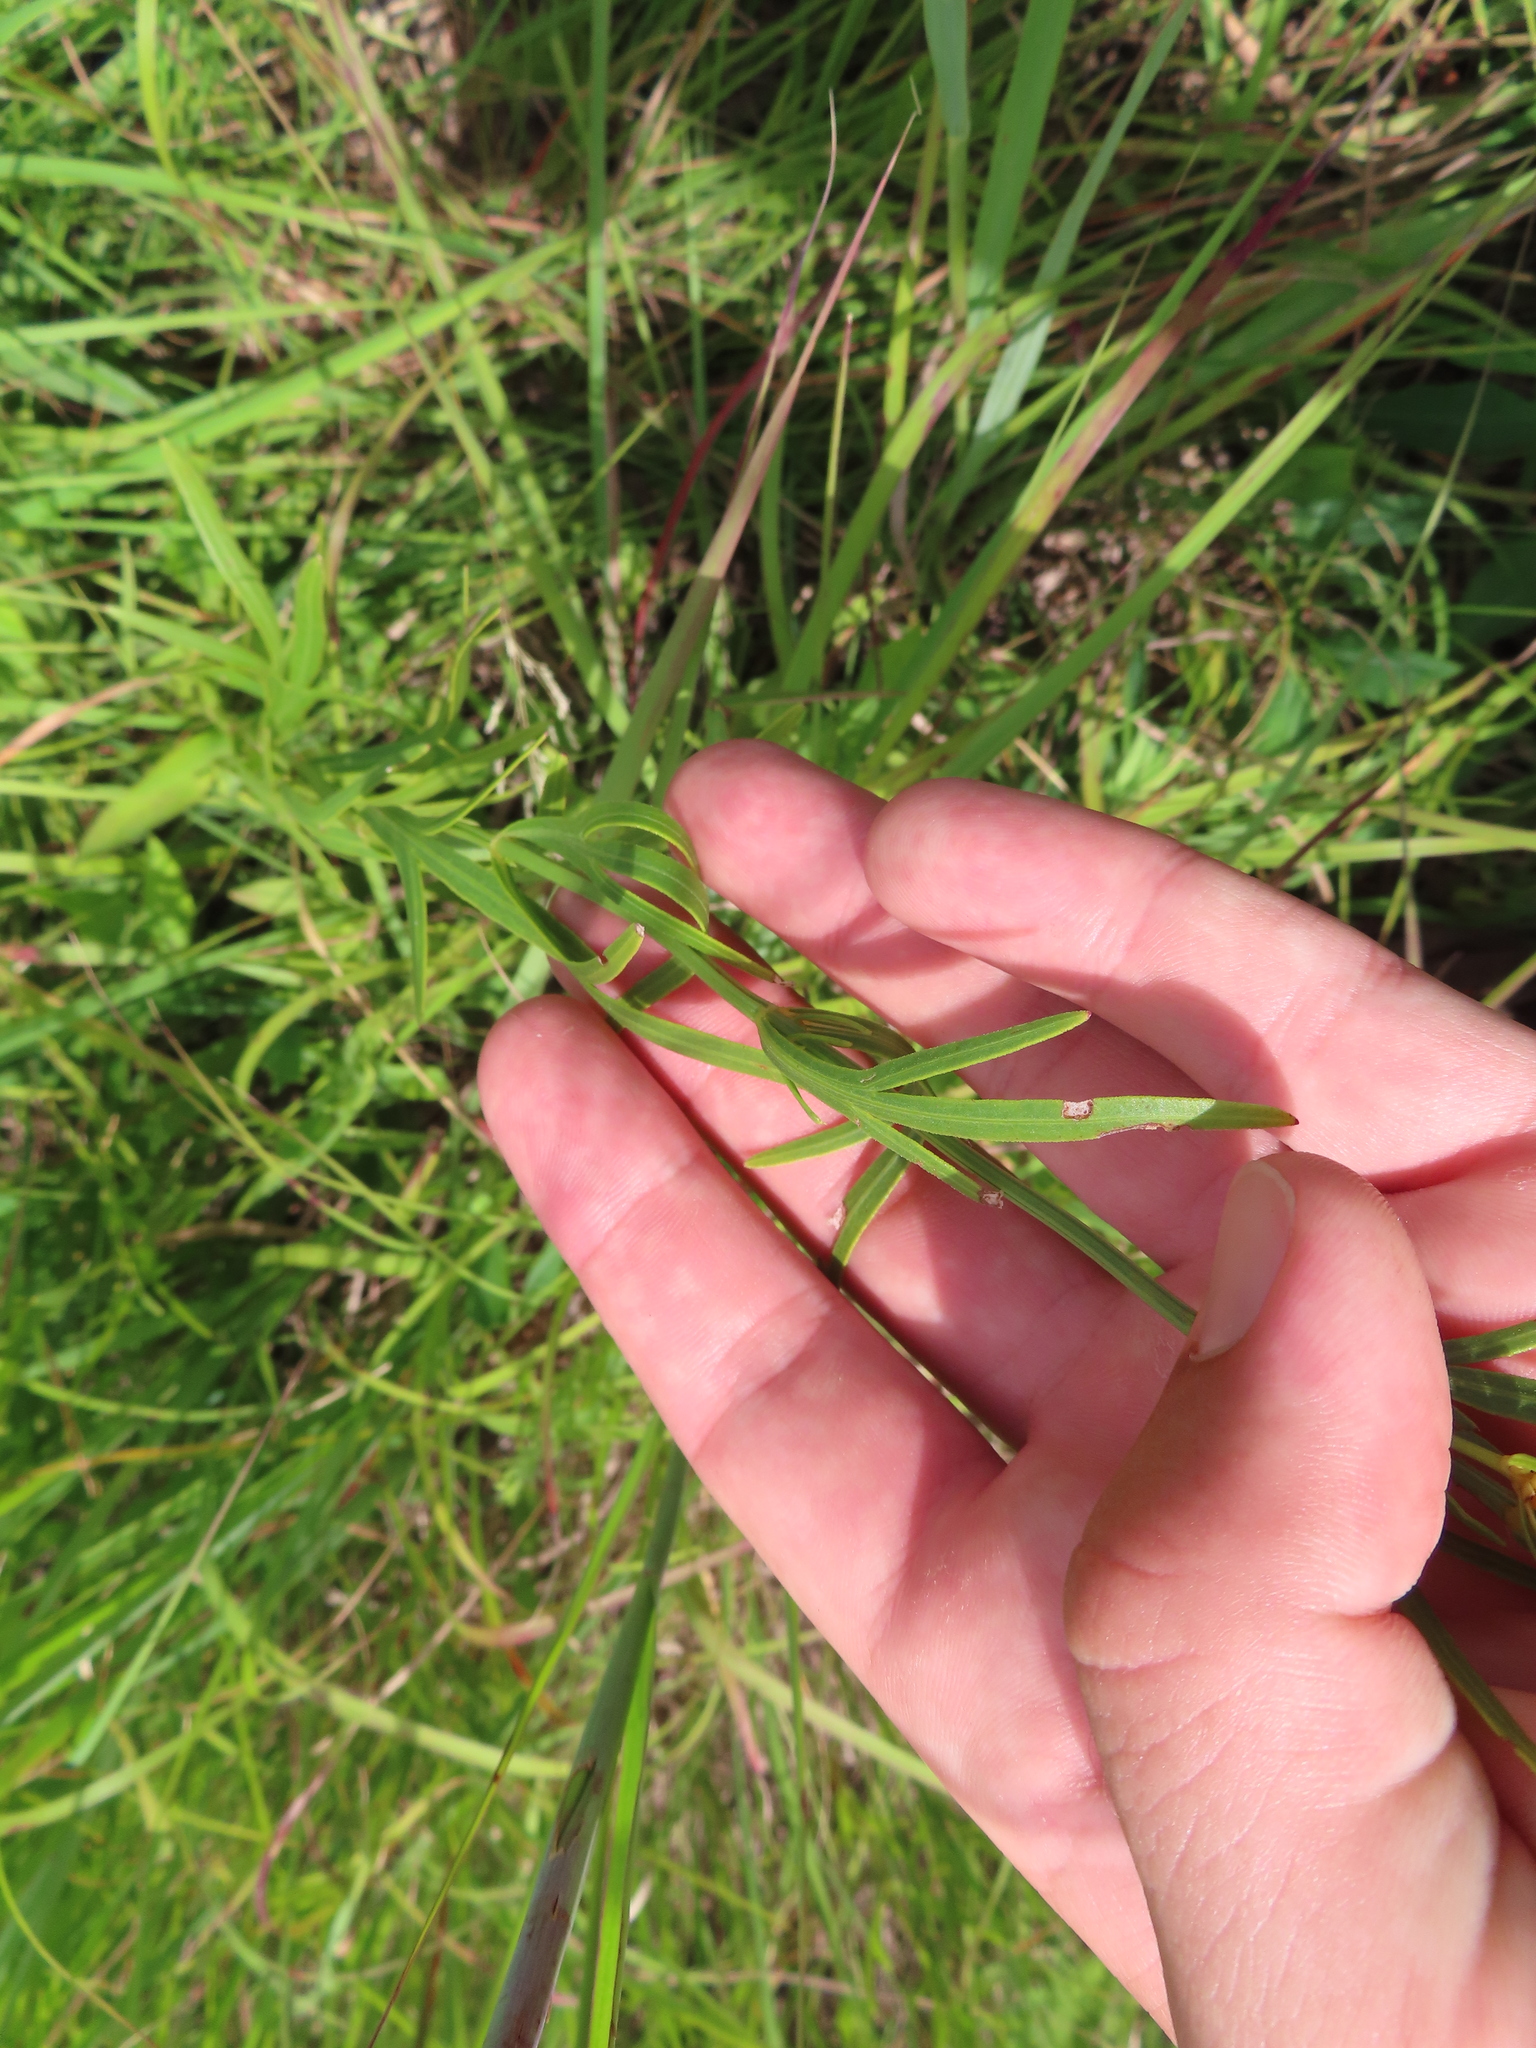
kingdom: Plantae
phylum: Tracheophyta
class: Magnoliopsida
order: Asterales
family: Asteraceae
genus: Coreopsis
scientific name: Coreopsis palmata
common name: Prairie coreopsis
